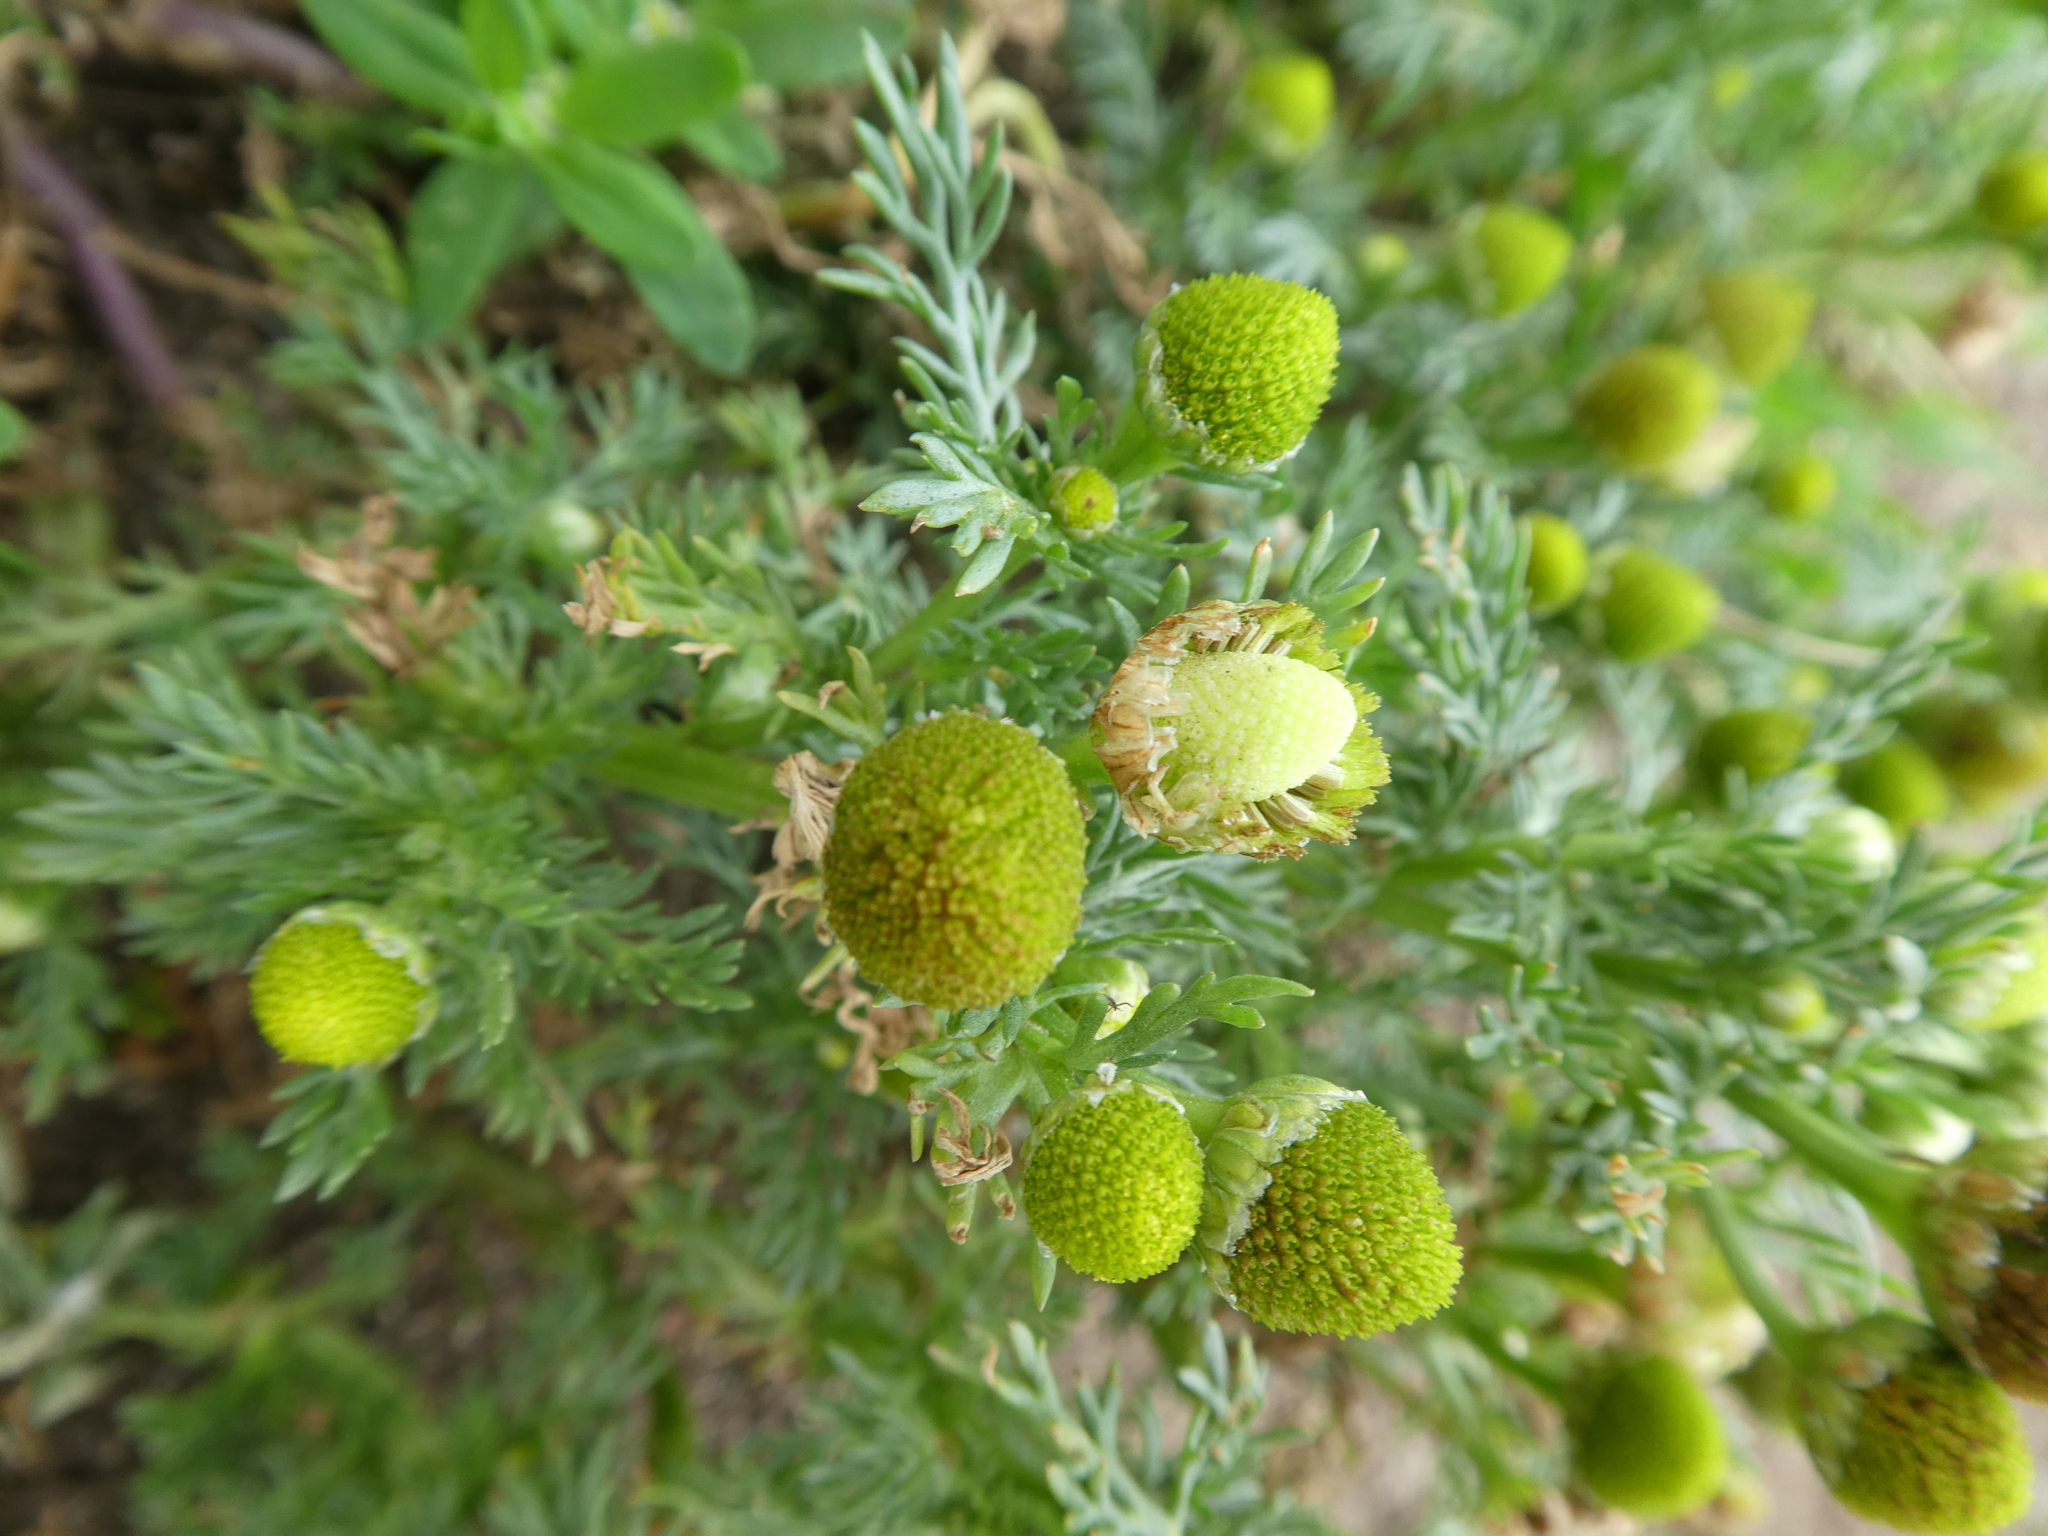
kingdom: Plantae
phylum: Tracheophyta
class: Magnoliopsida
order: Asterales
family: Asteraceae
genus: Matricaria
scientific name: Matricaria discoidea
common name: Disc mayweed
